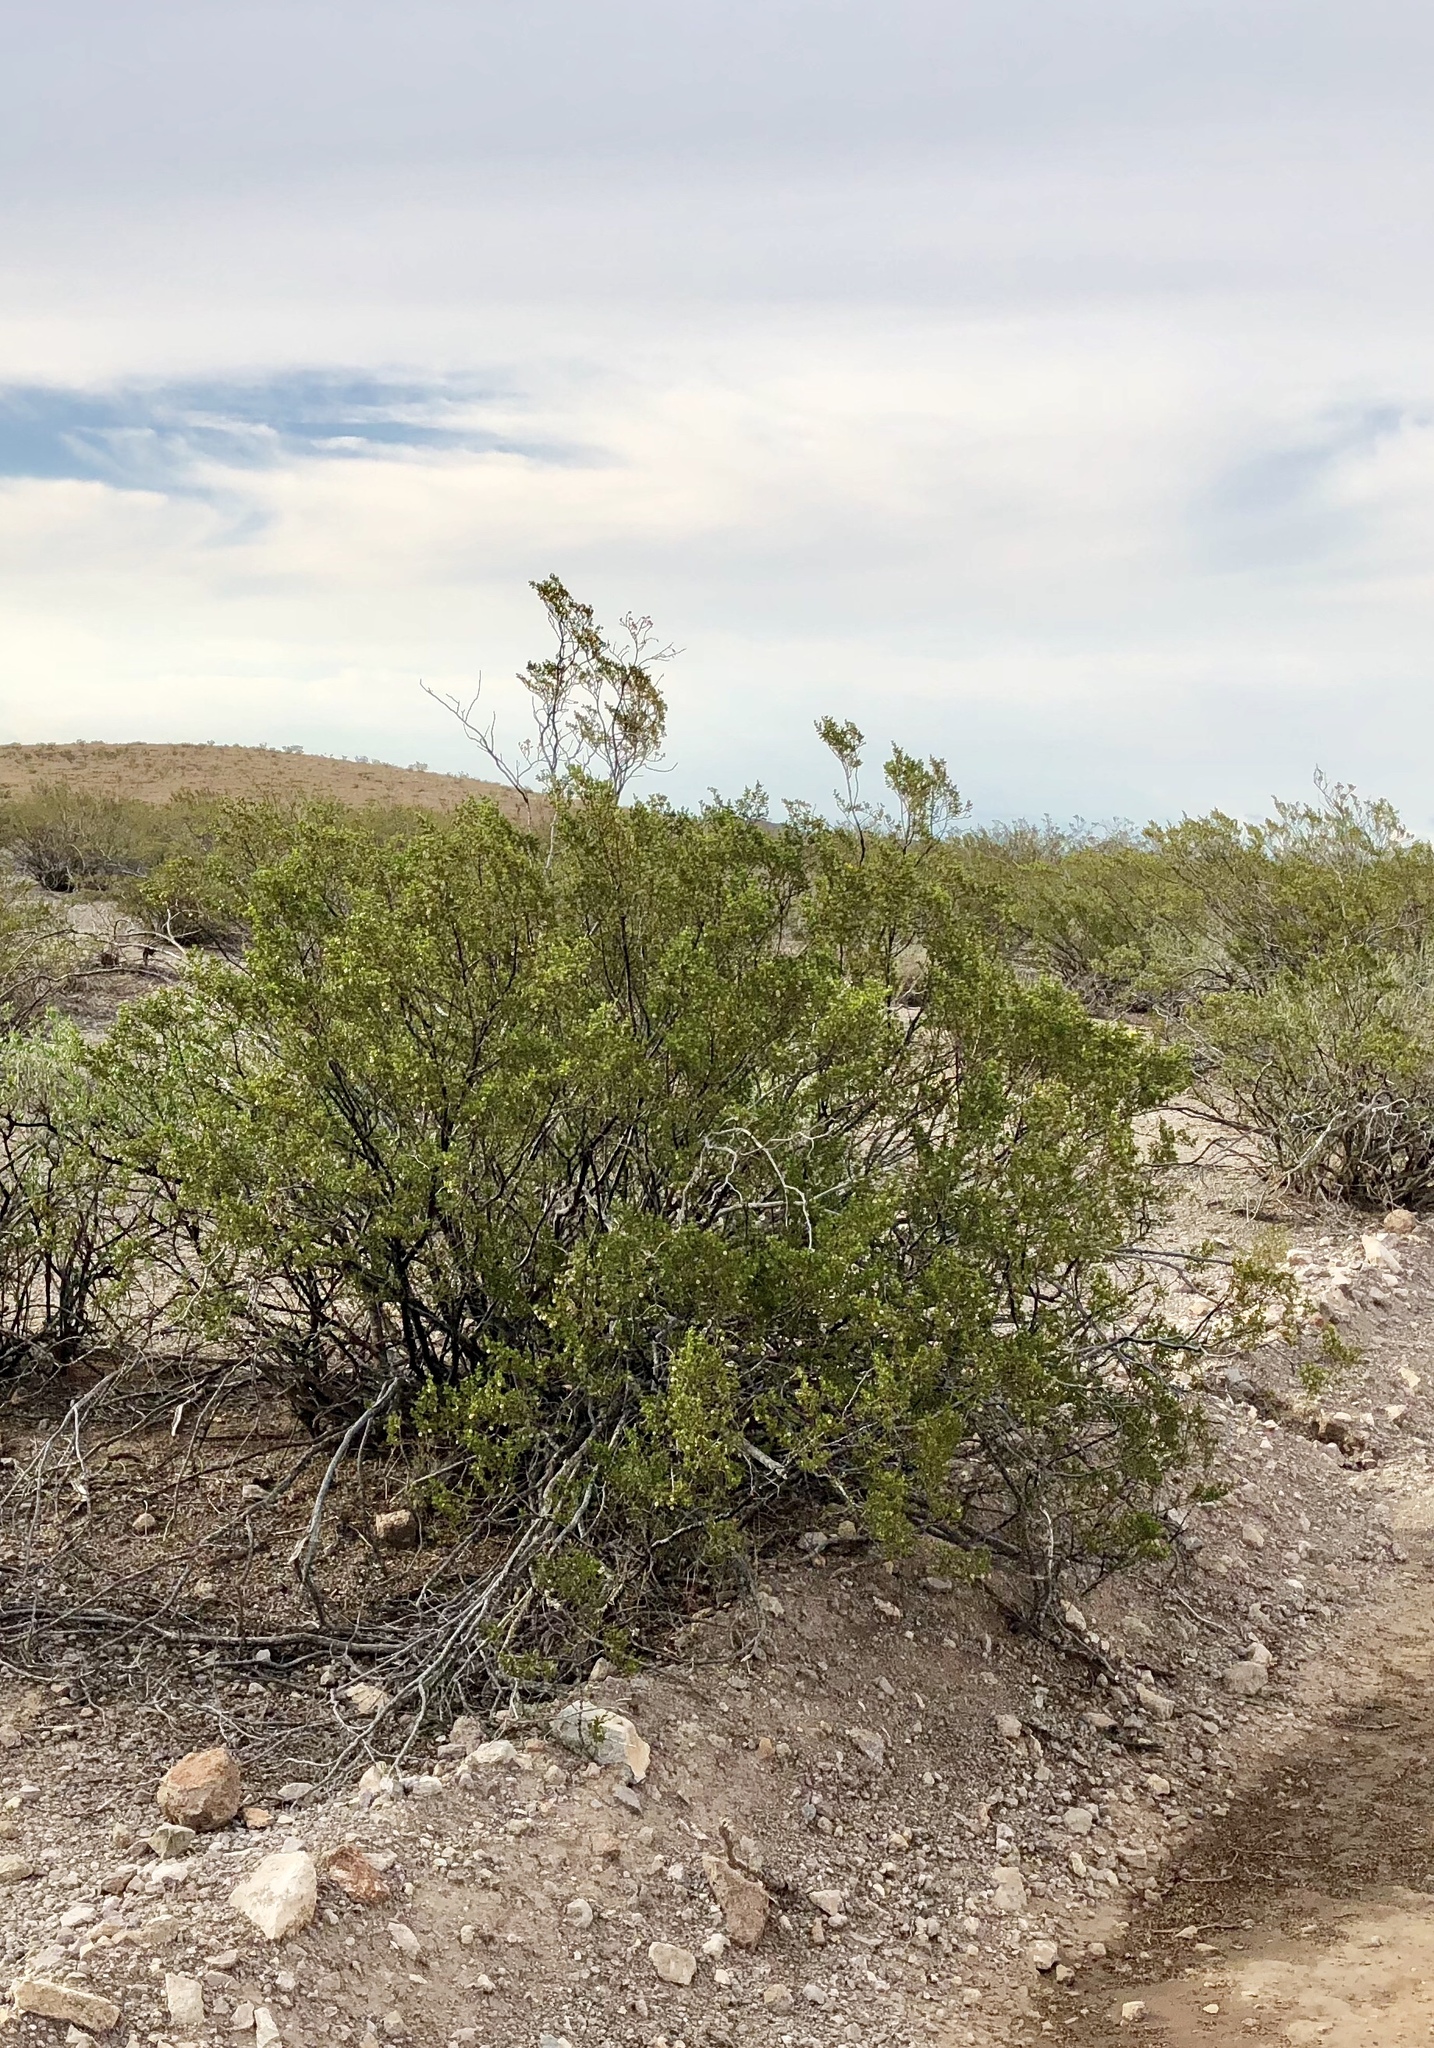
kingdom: Plantae
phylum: Tracheophyta
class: Magnoliopsida
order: Zygophyllales
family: Zygophyllaceae
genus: Larrea
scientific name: Larrea tridentata
